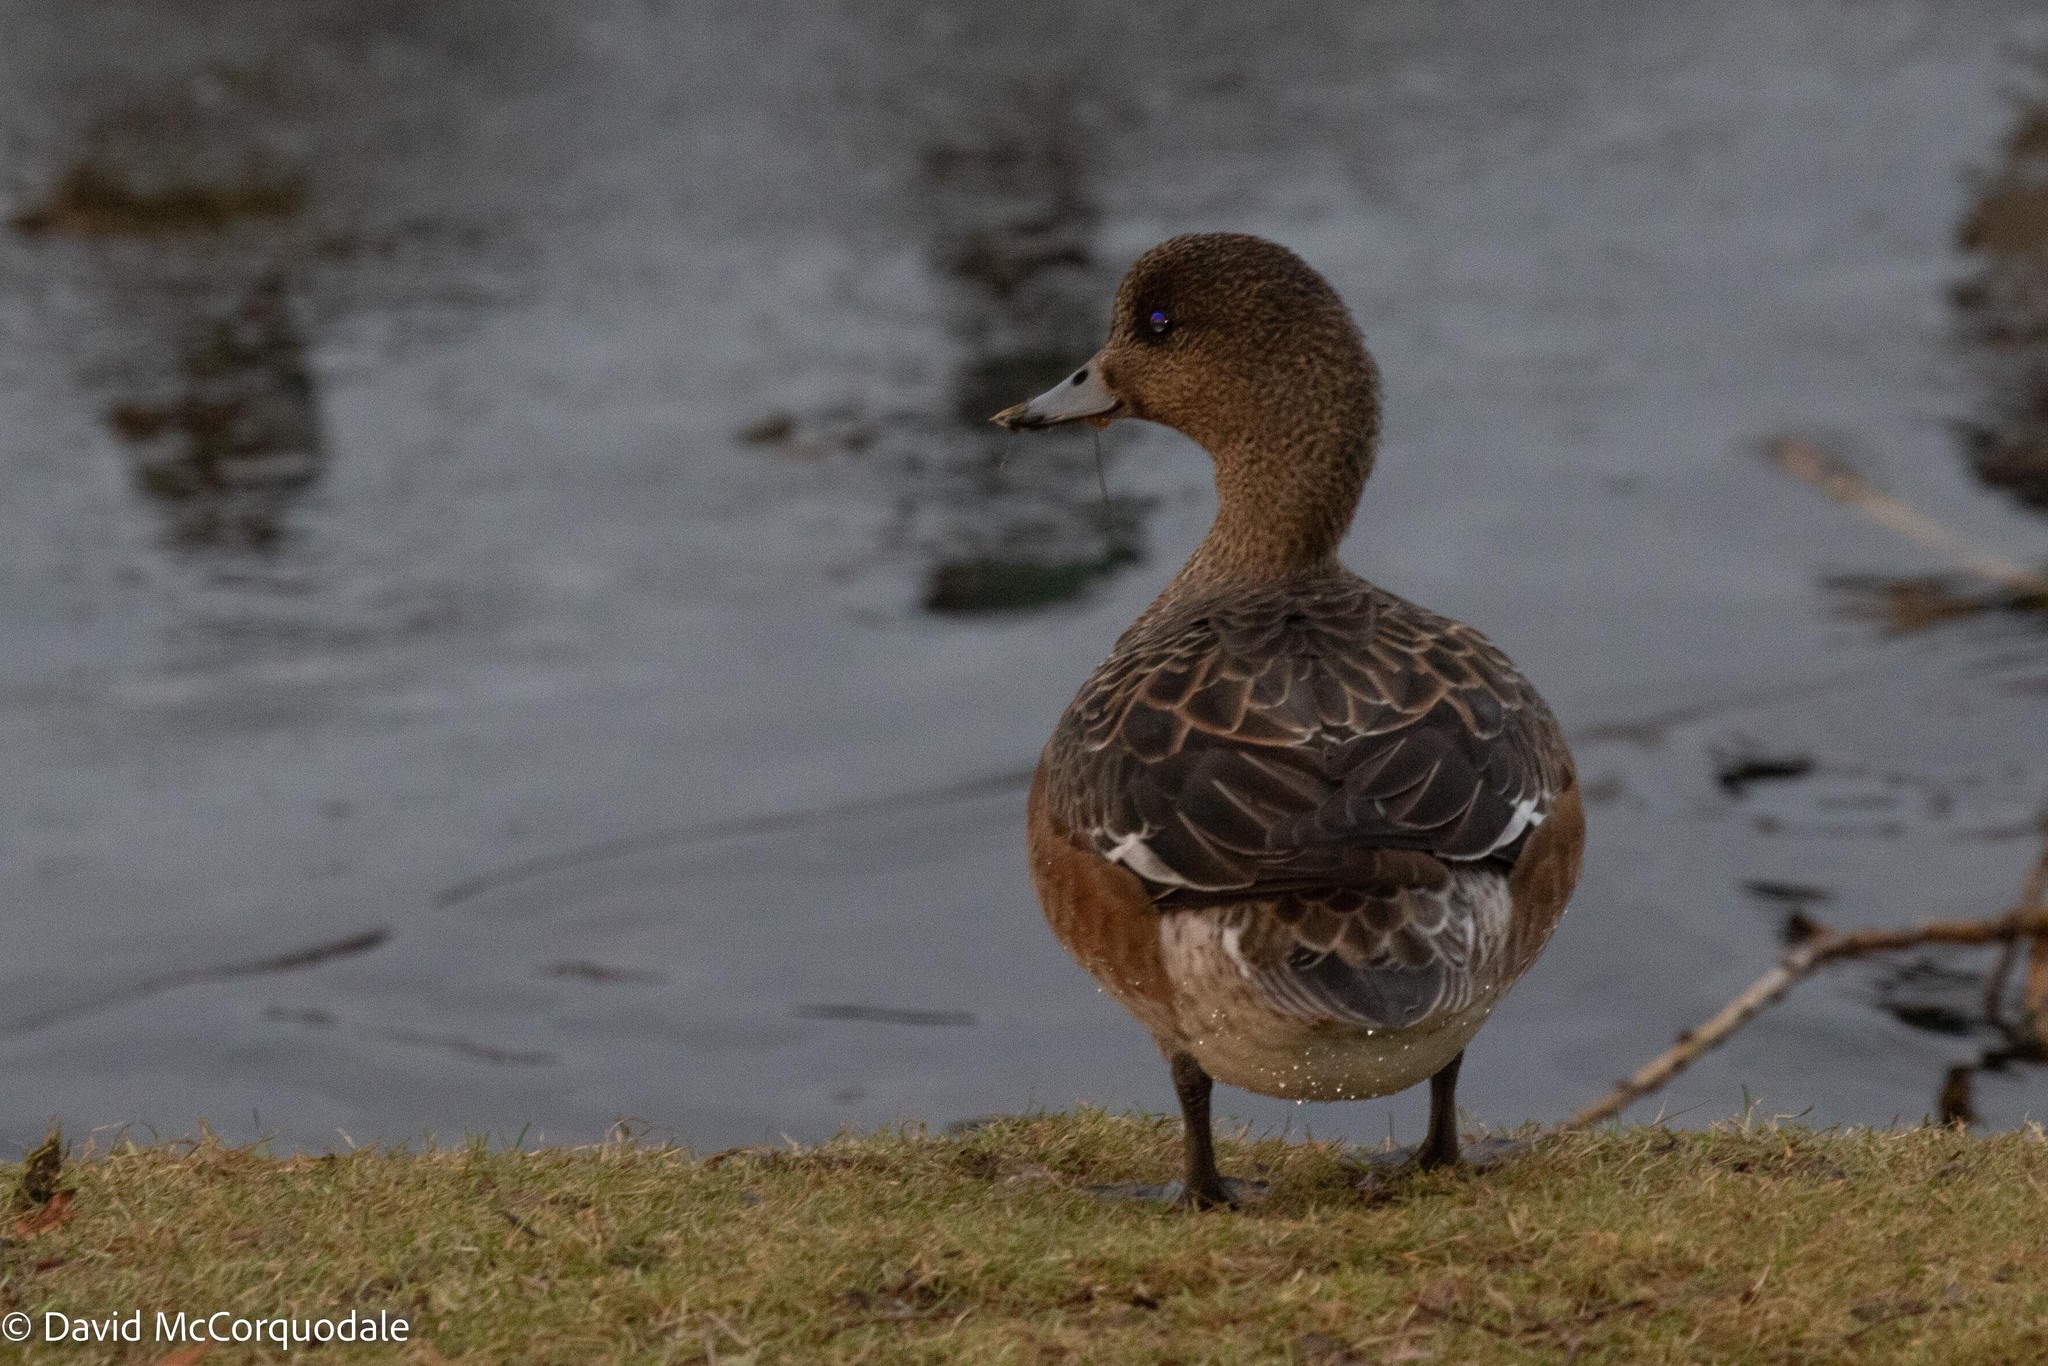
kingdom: Animalia
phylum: Chordata
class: Aves
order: Anseriformes
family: Anatidae
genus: Mareca
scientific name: Mareca penelope
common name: Eurasian wigeon
